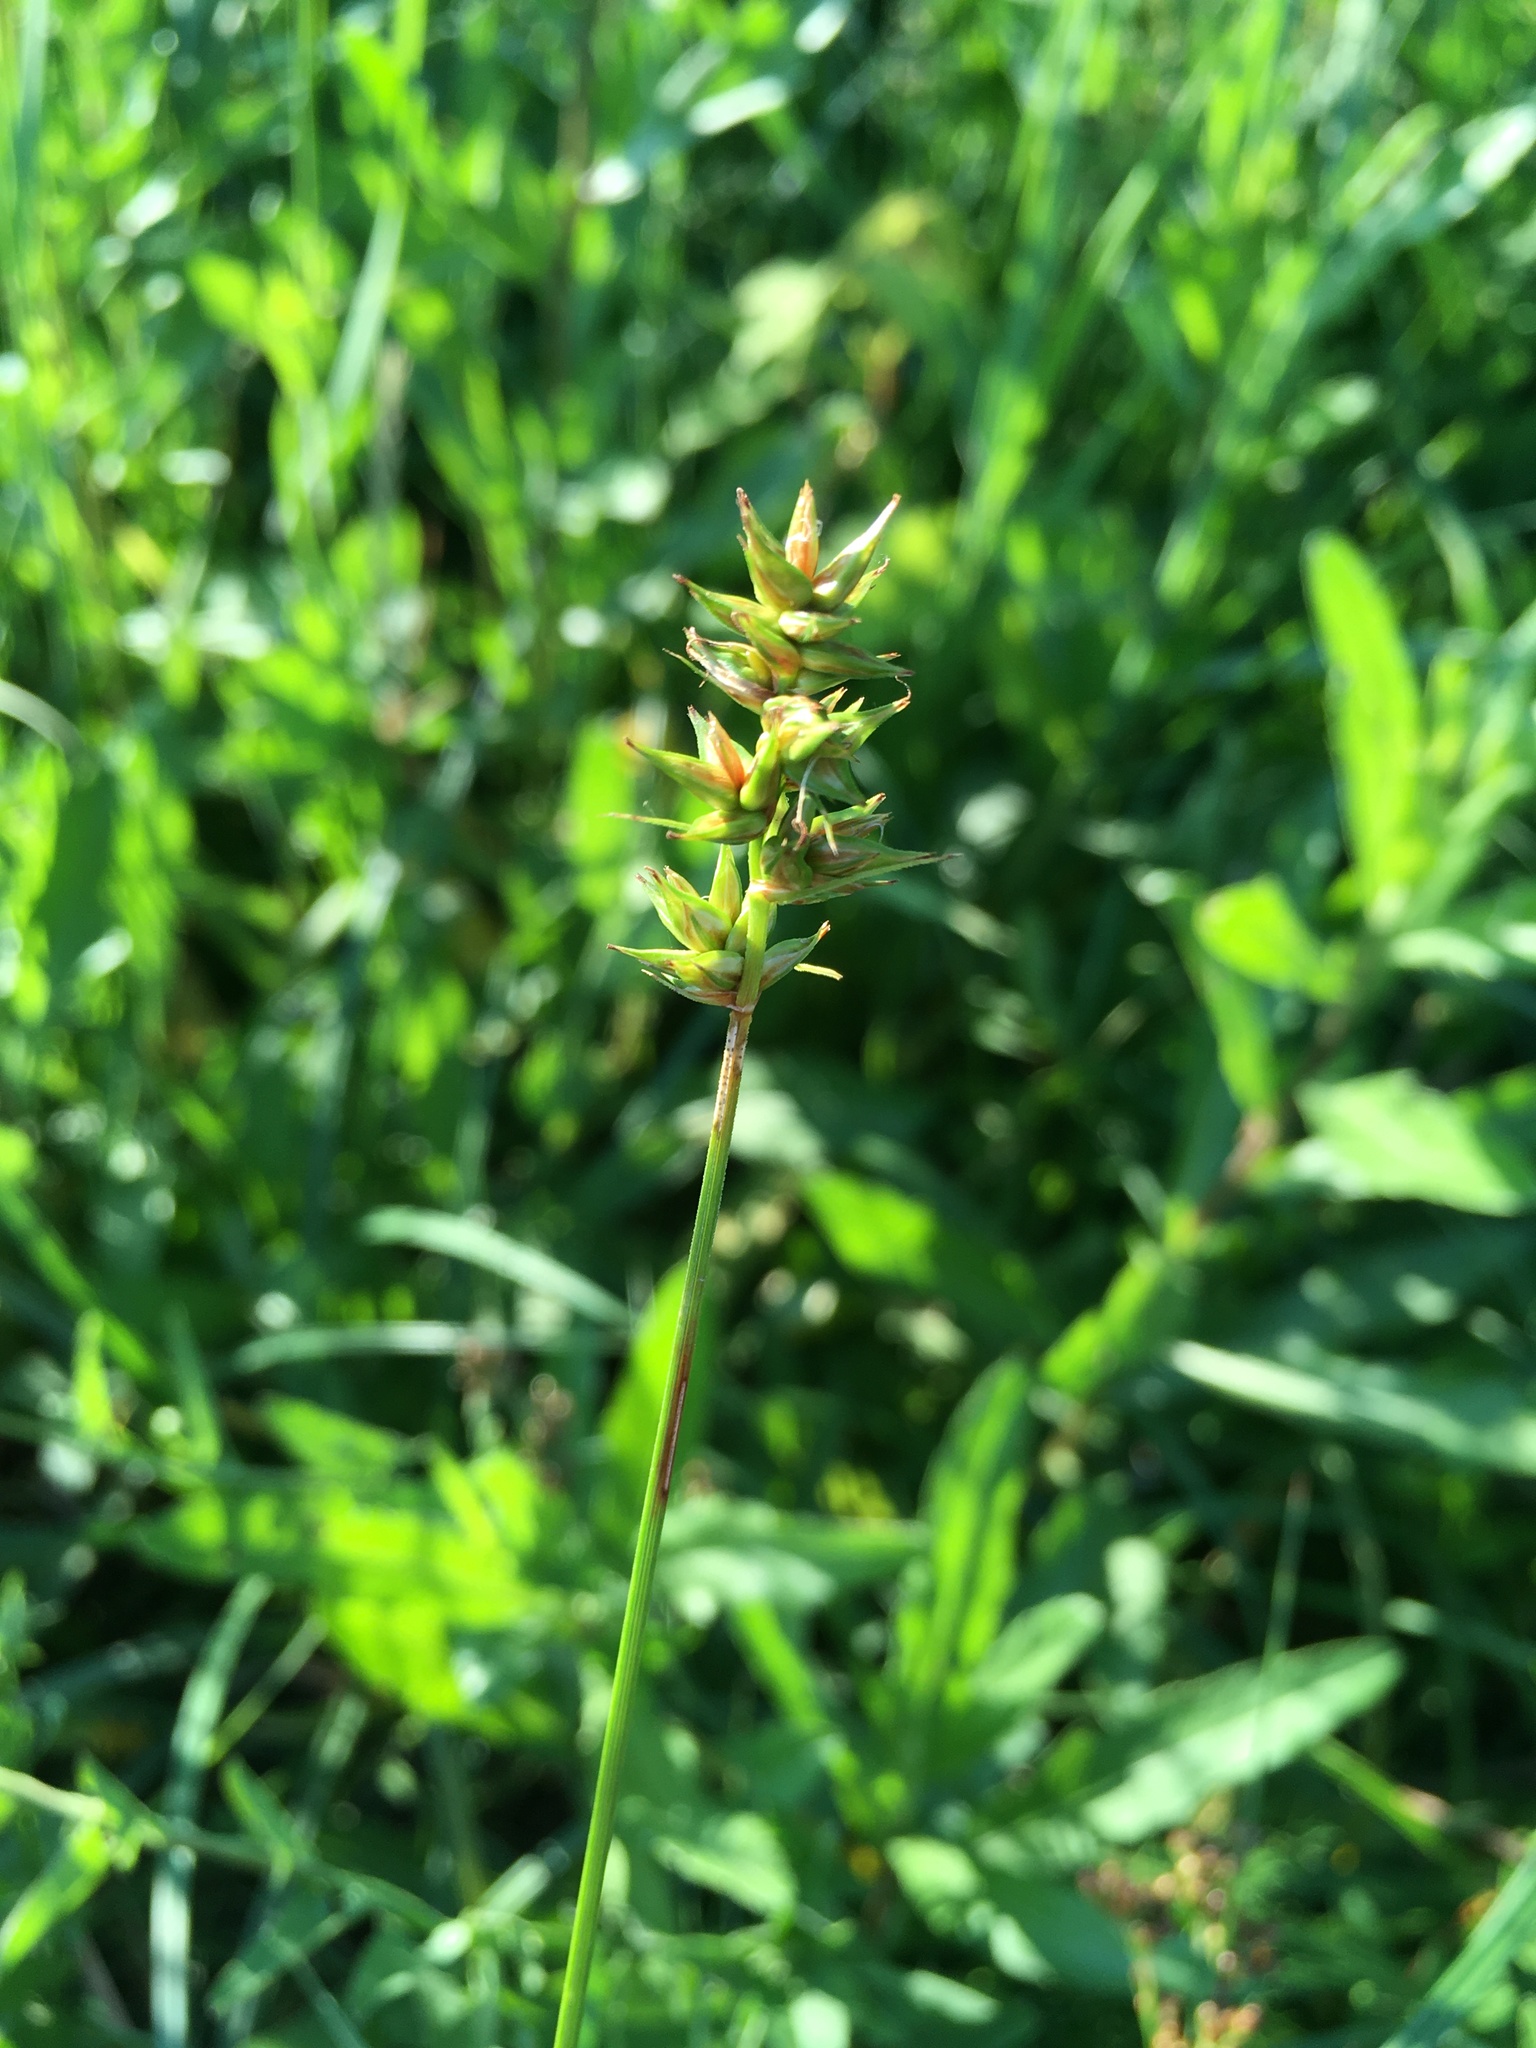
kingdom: Plantae
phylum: Tracheophyta
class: Liliopsida
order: Poales
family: Cyperaceae
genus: Carex
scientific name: Carex spicata
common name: Spiked sedge
